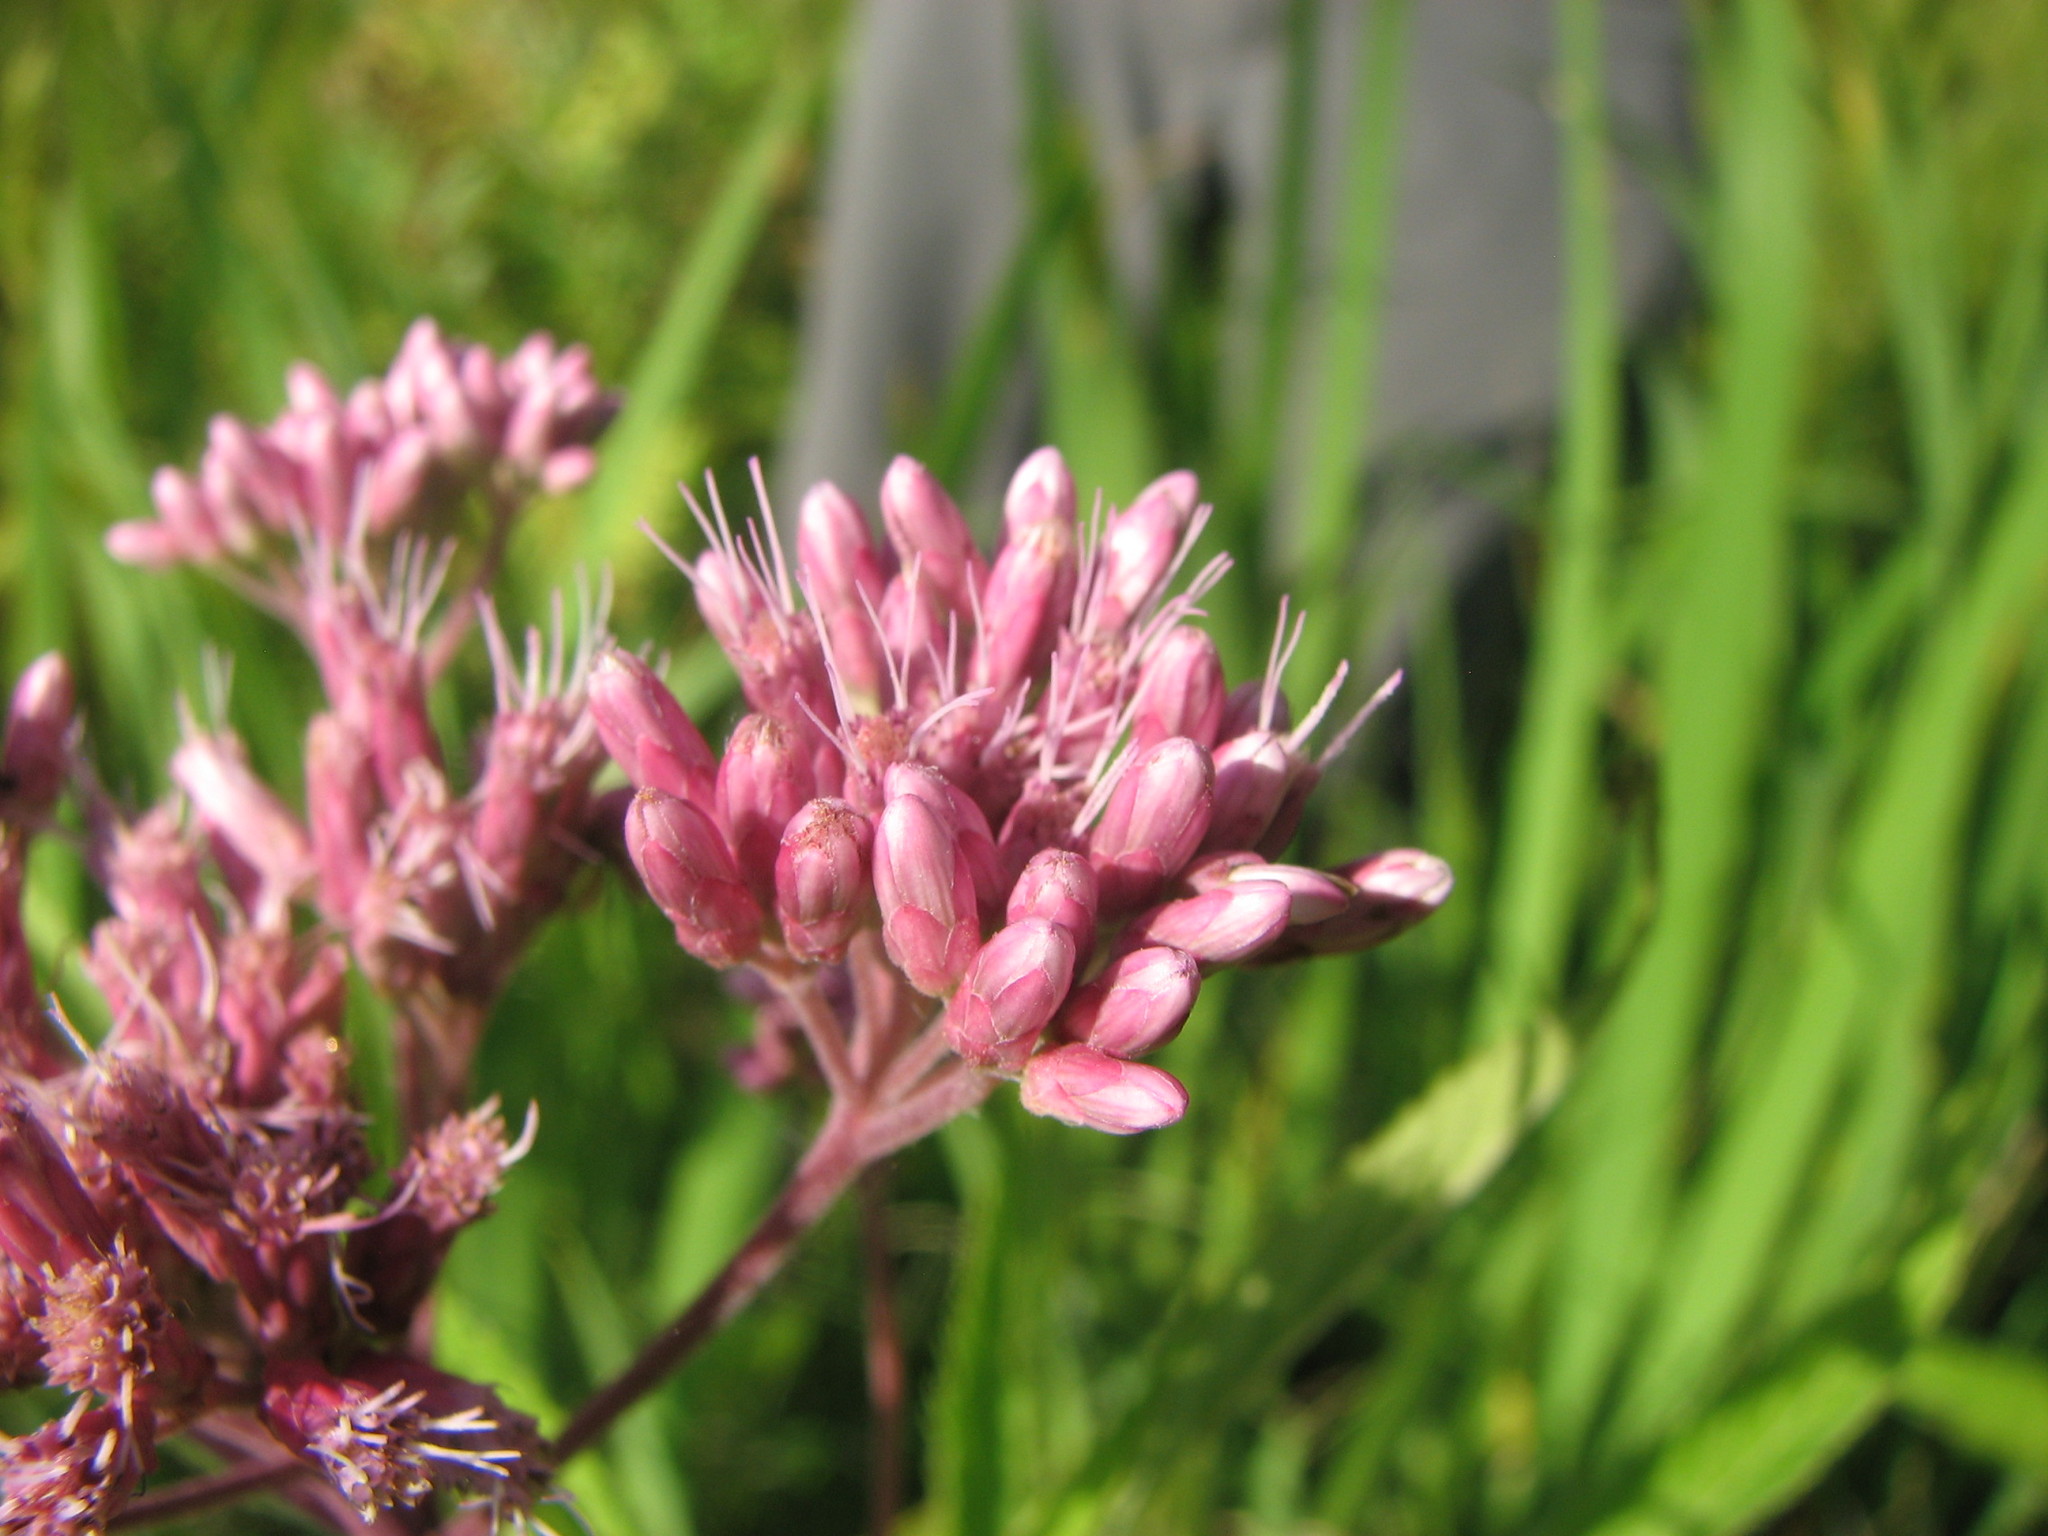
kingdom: Plantae
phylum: Tracheophyta
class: Magnoliopsida
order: Asterales
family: Asteraceae
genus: Eutrochium
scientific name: Eutrochium maculatum
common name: Spotted joe pye weed
